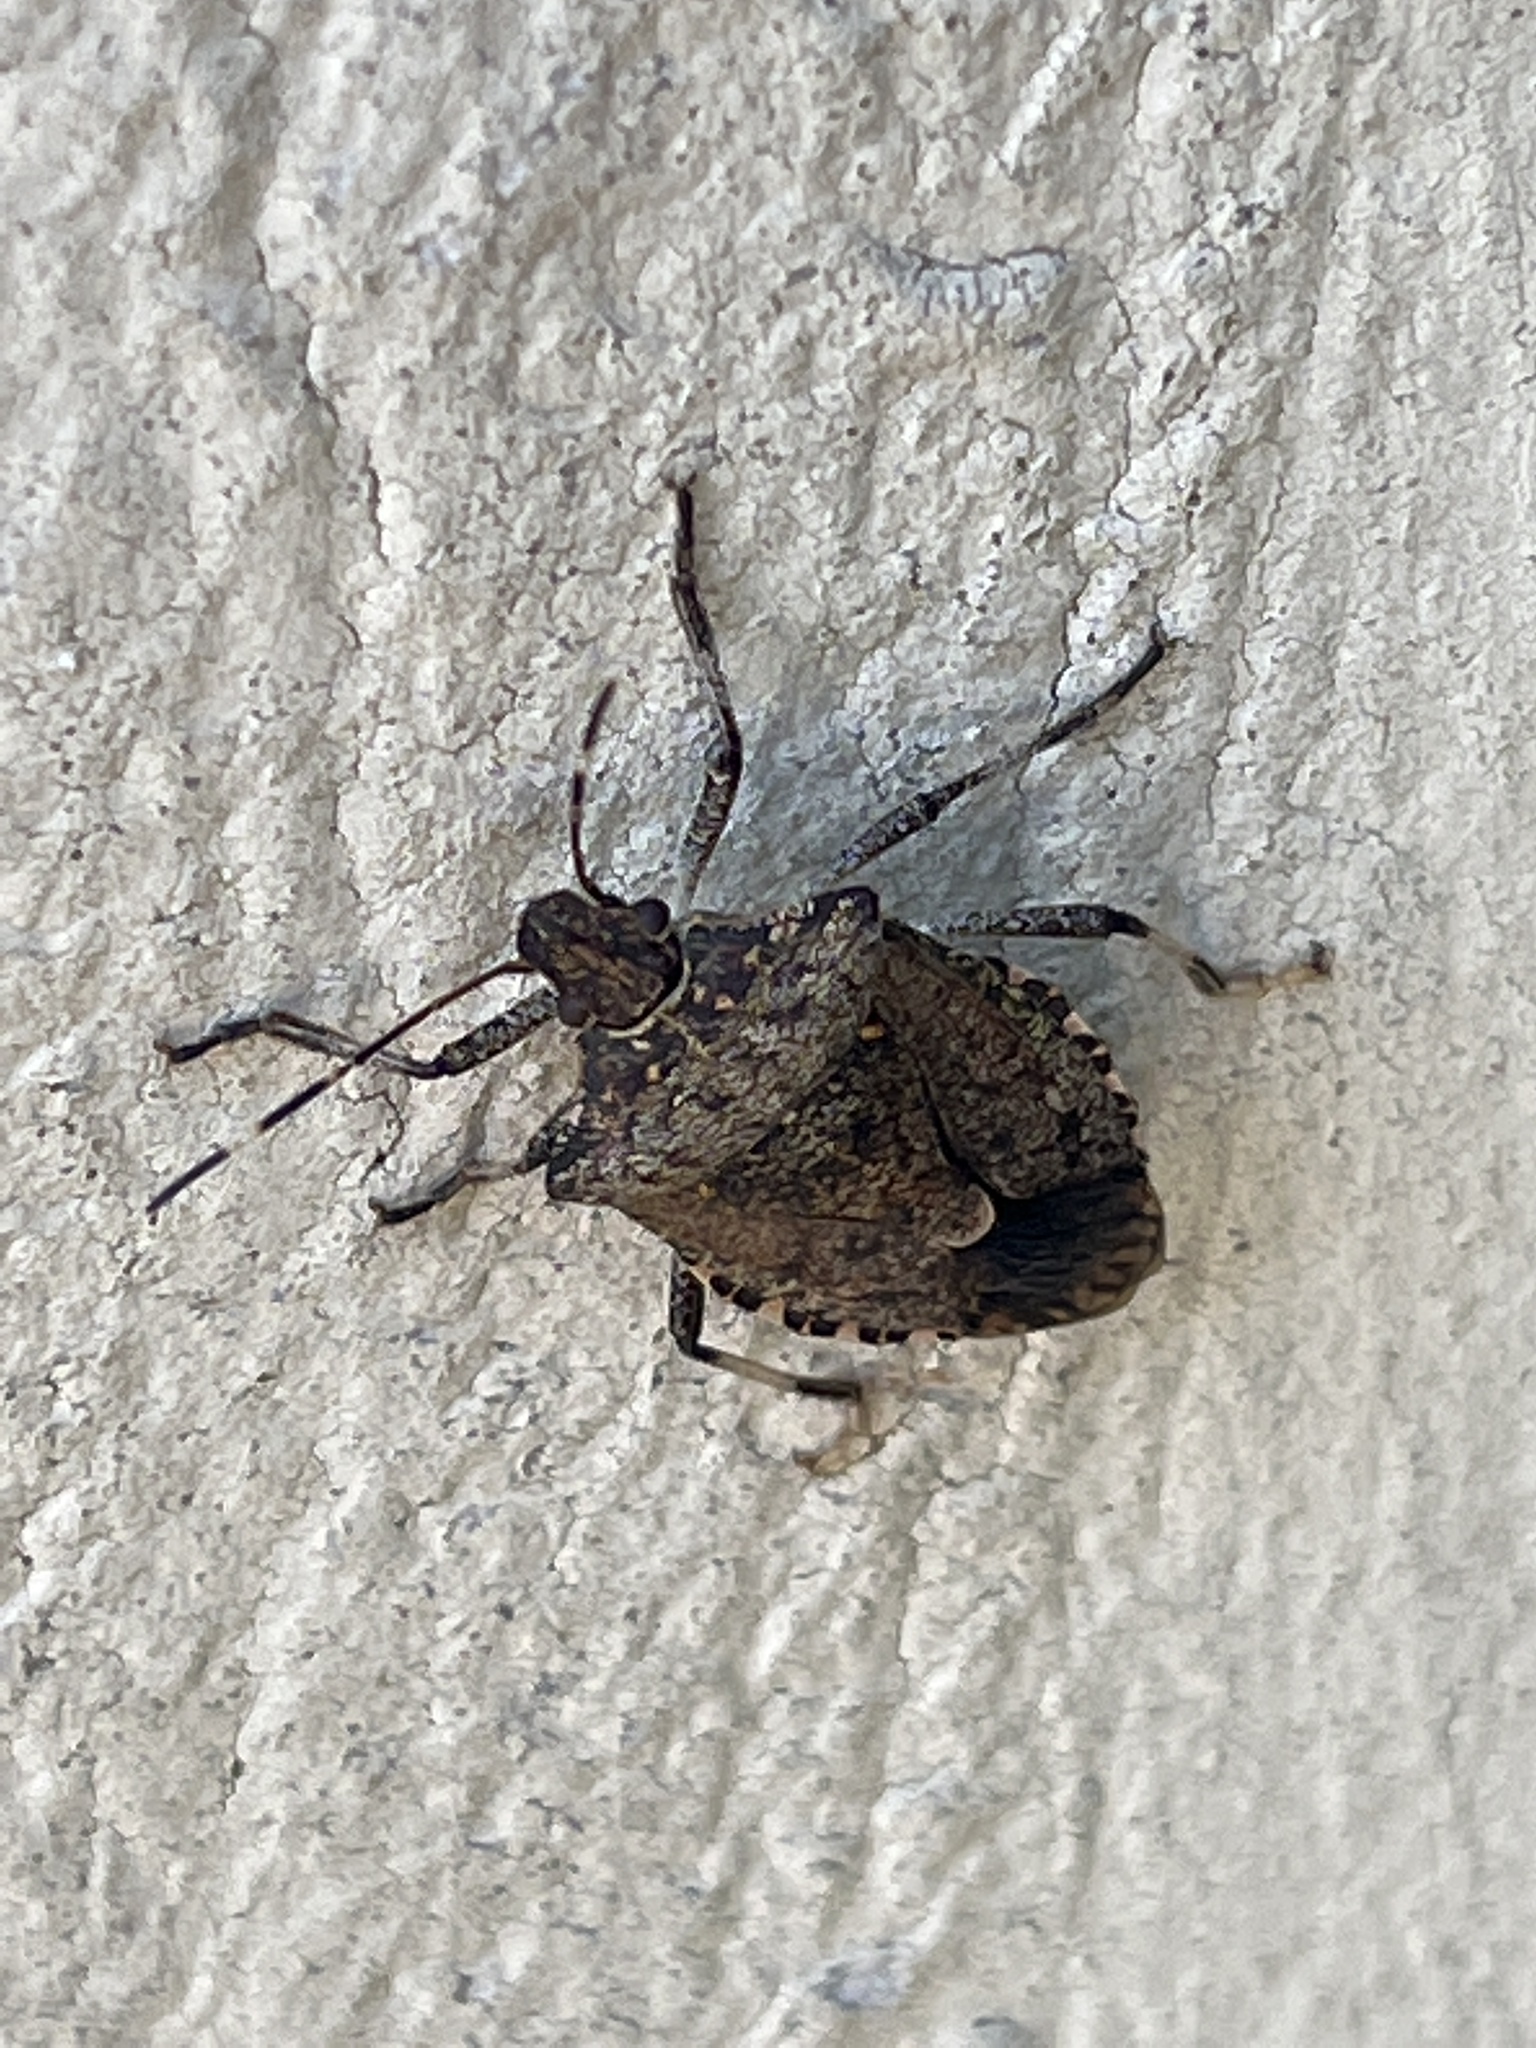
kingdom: Animalia
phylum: Arthropoda
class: Insecta
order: Hemiptera
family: Pentatomidae
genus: Halyomorpha
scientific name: Halyomorpha halys
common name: Brown marmorated stink bug
